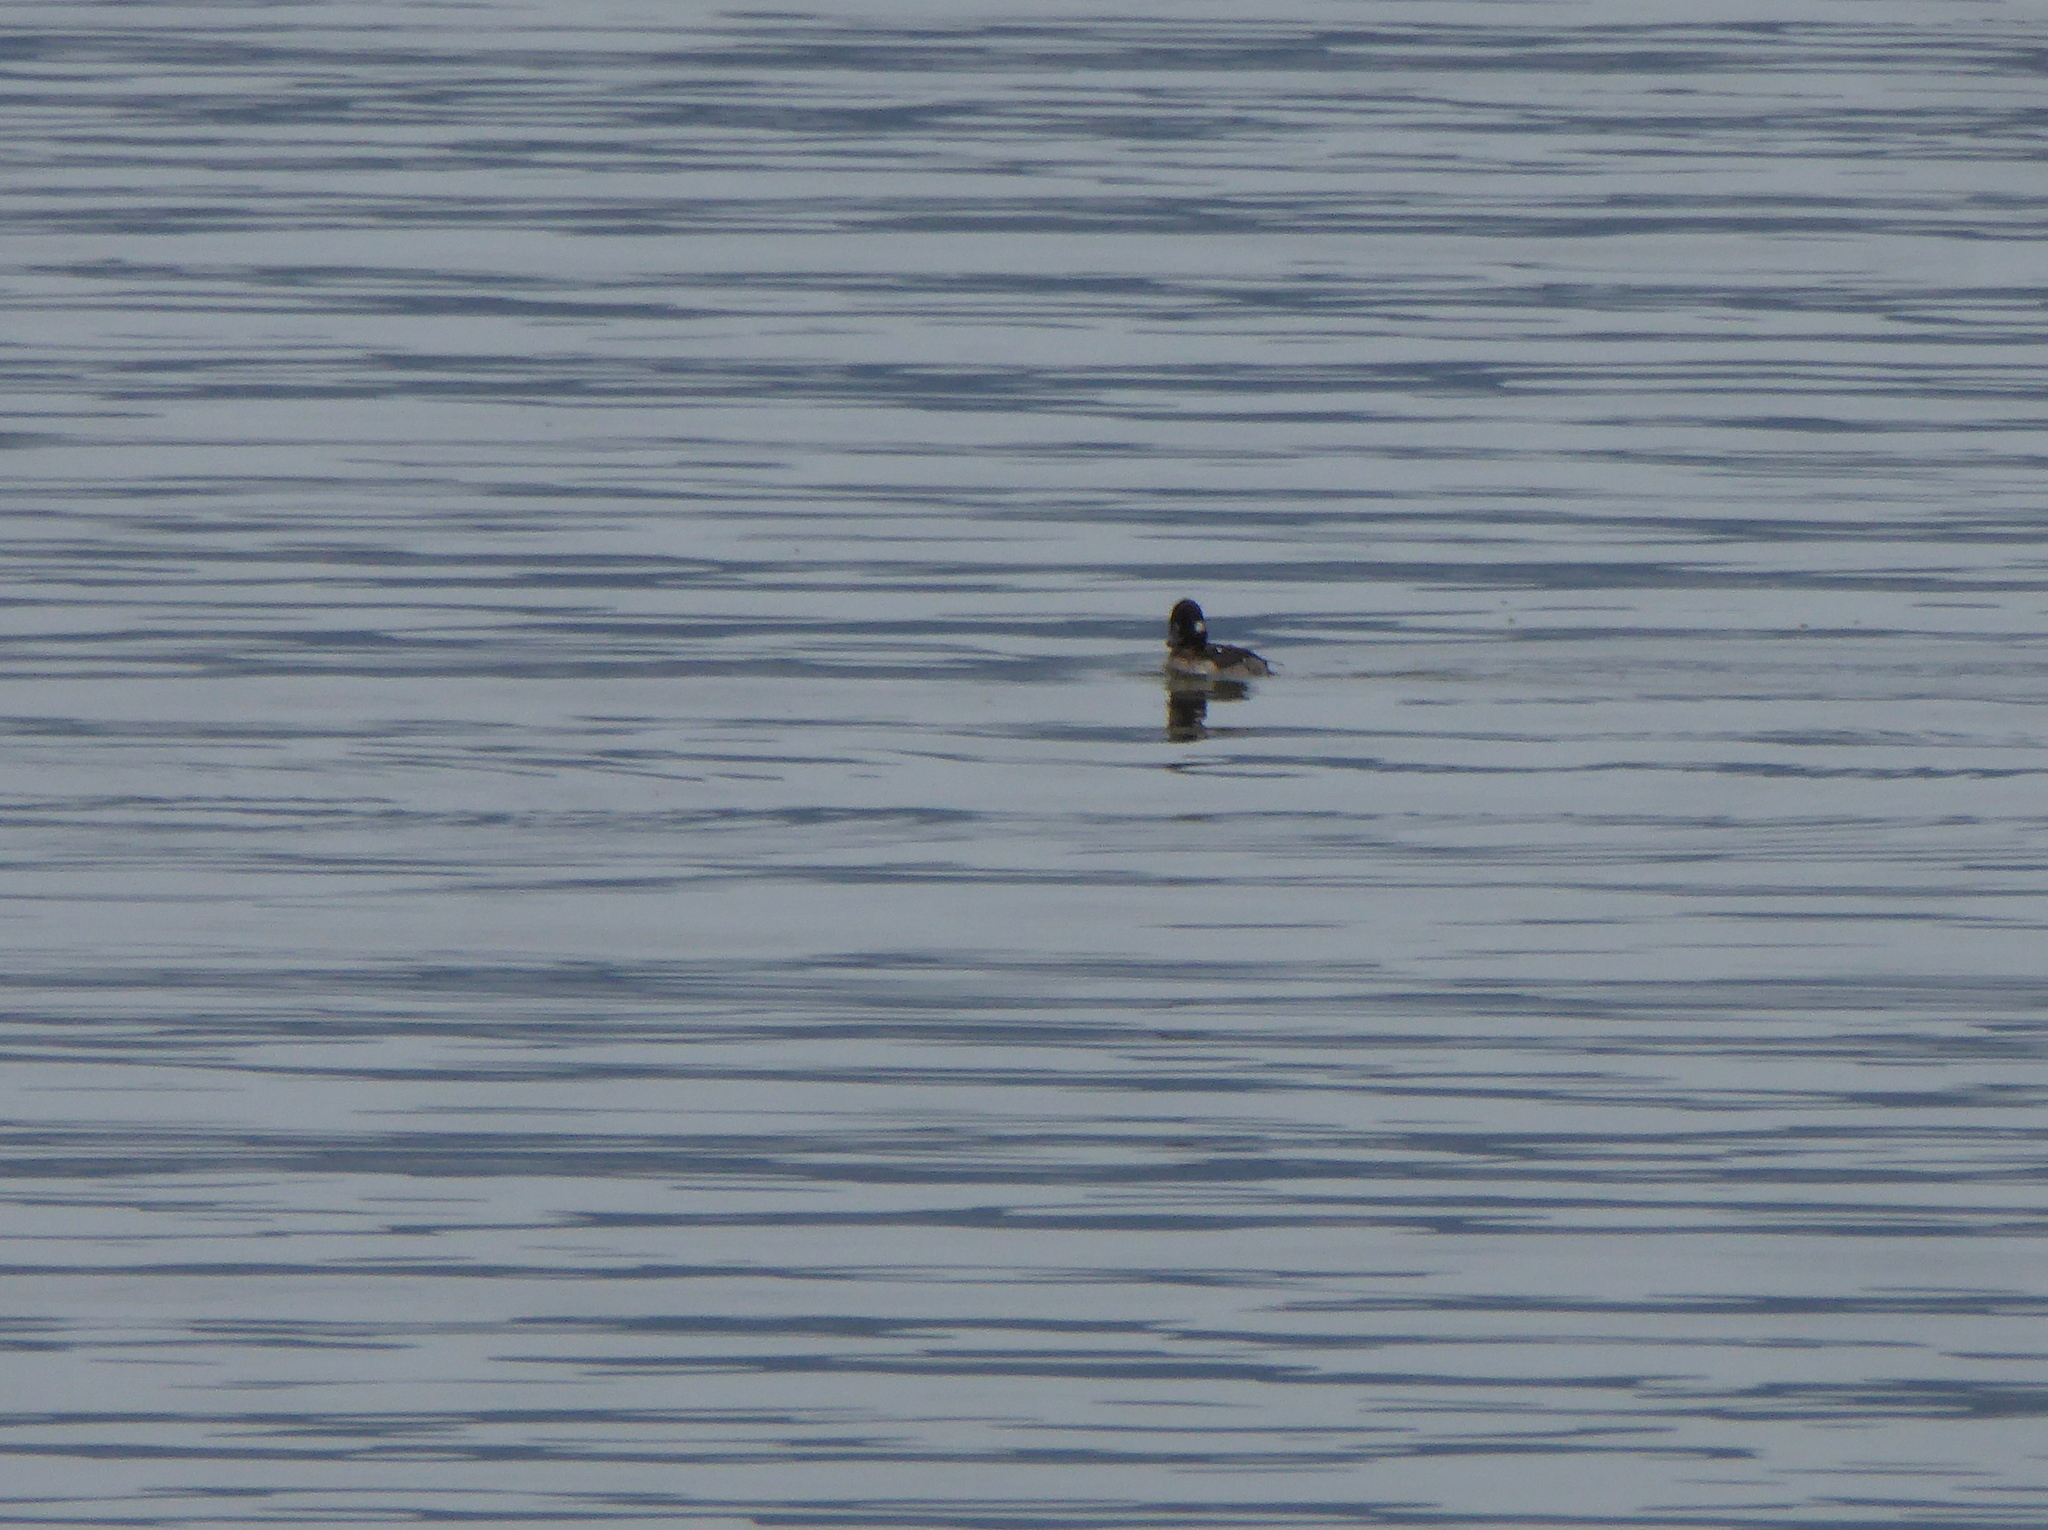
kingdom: Animalia
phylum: Chordata
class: Aves
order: Anseriformes
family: Anatidae
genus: Bucephala
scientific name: Bucephala albeola
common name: Bufflehead
